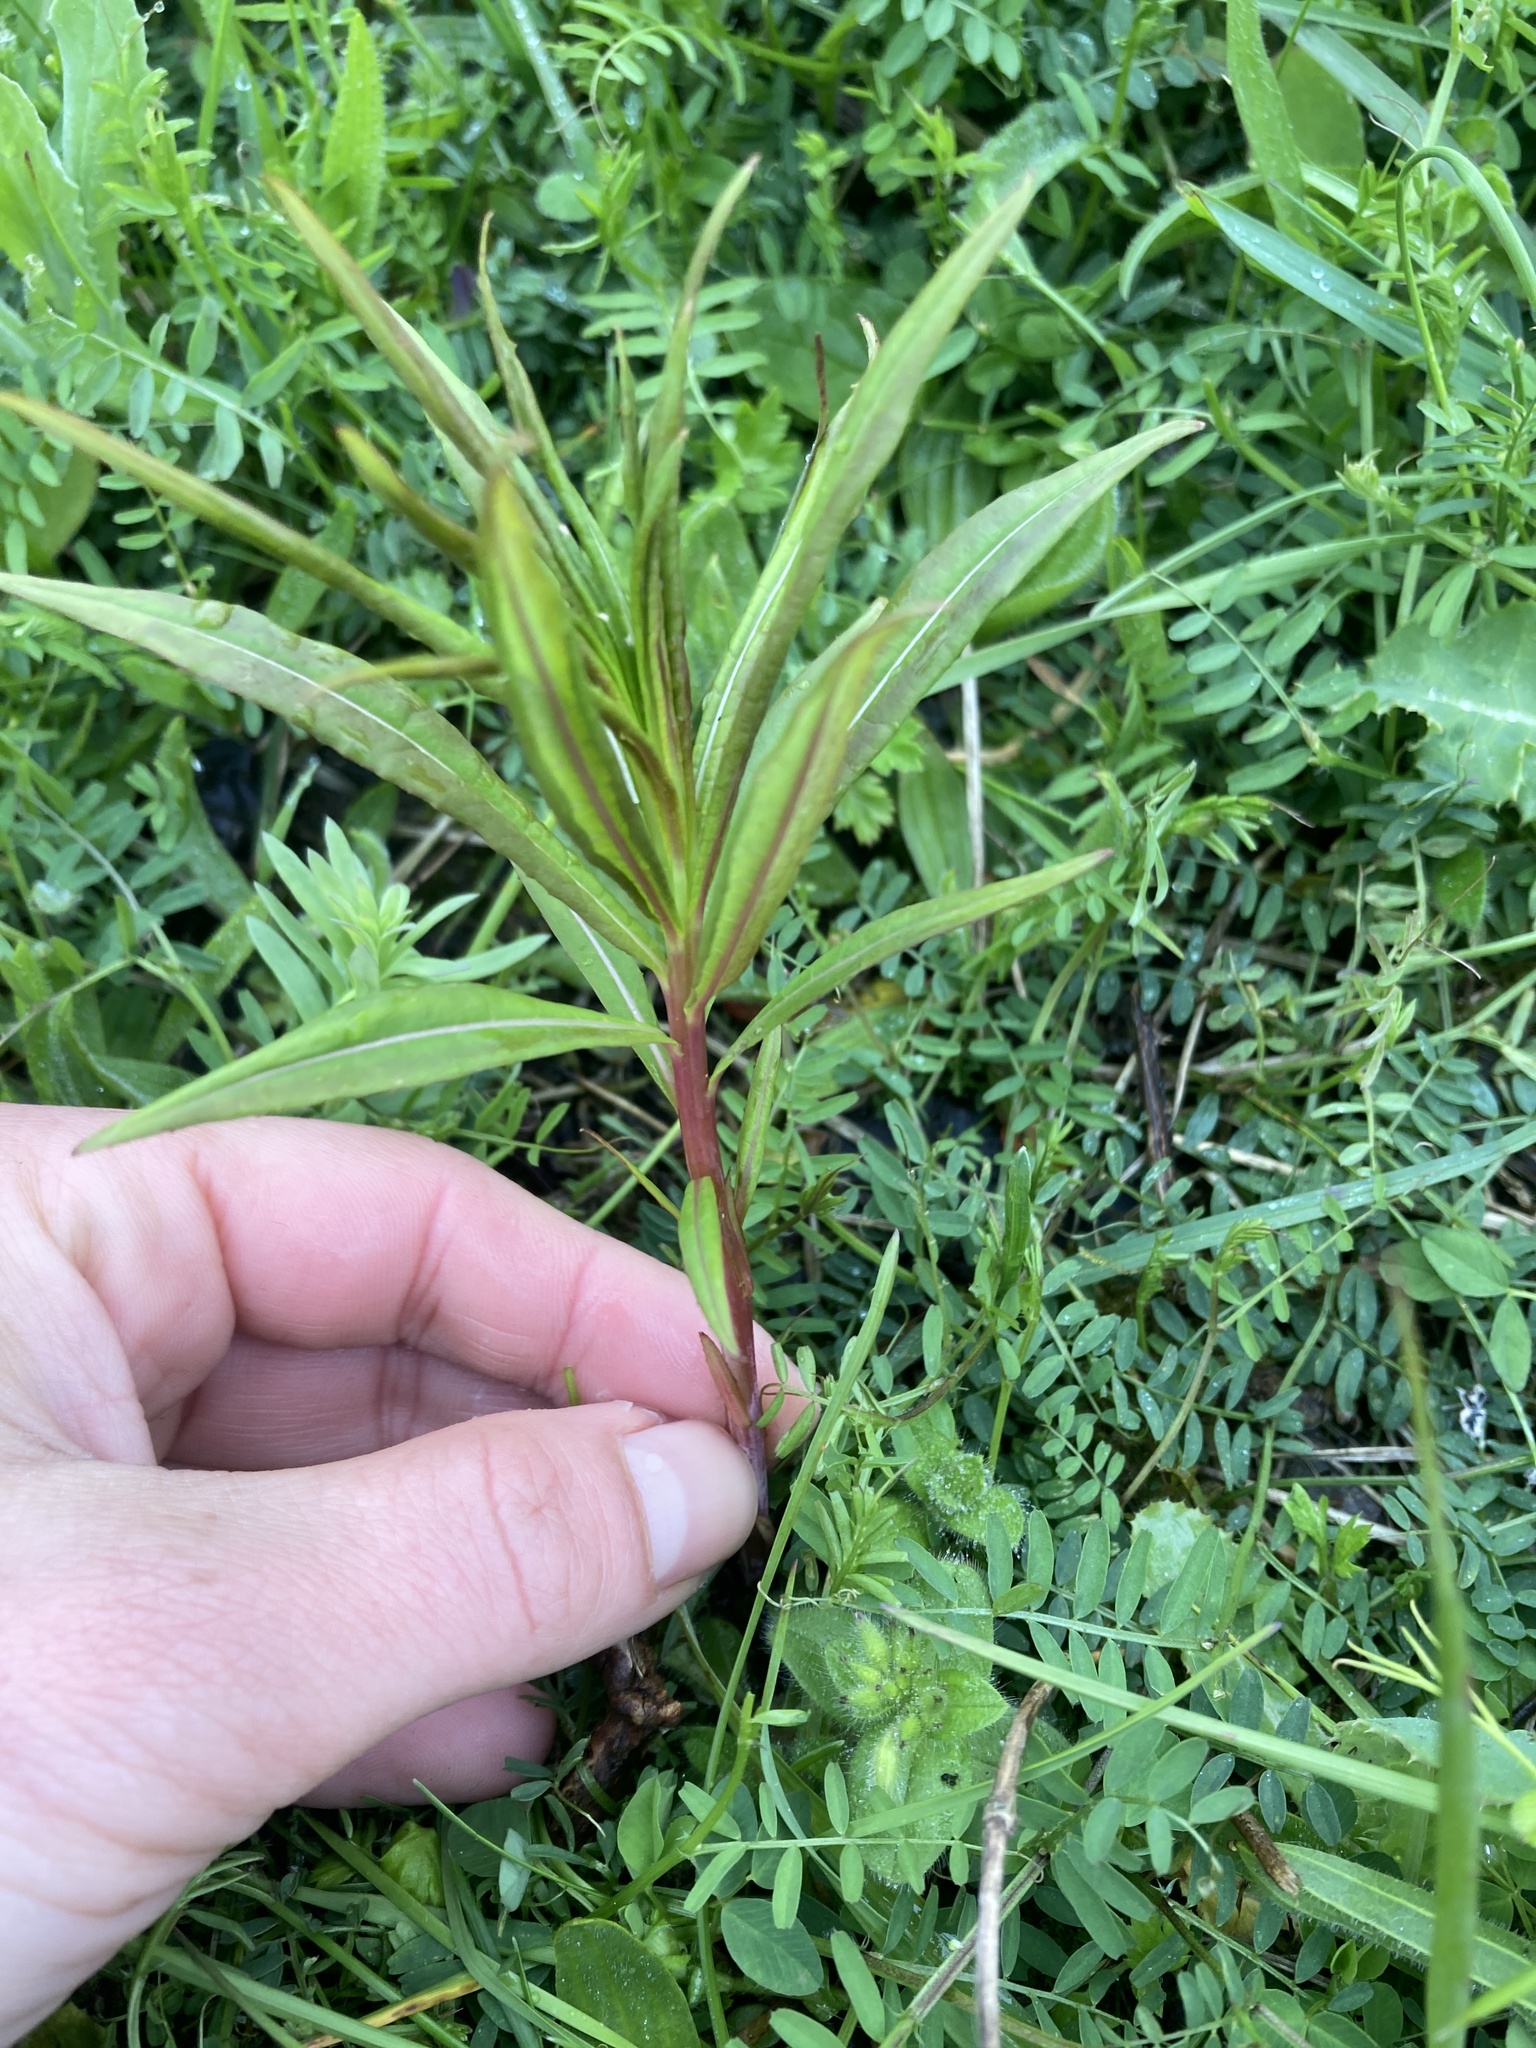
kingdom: Plantae
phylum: Tracheophyta
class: Magnoliopsida
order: Myrtales
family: Onagraceae
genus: Chamaenerion
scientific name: Chamaenerion angustifolium
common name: Fireweed
